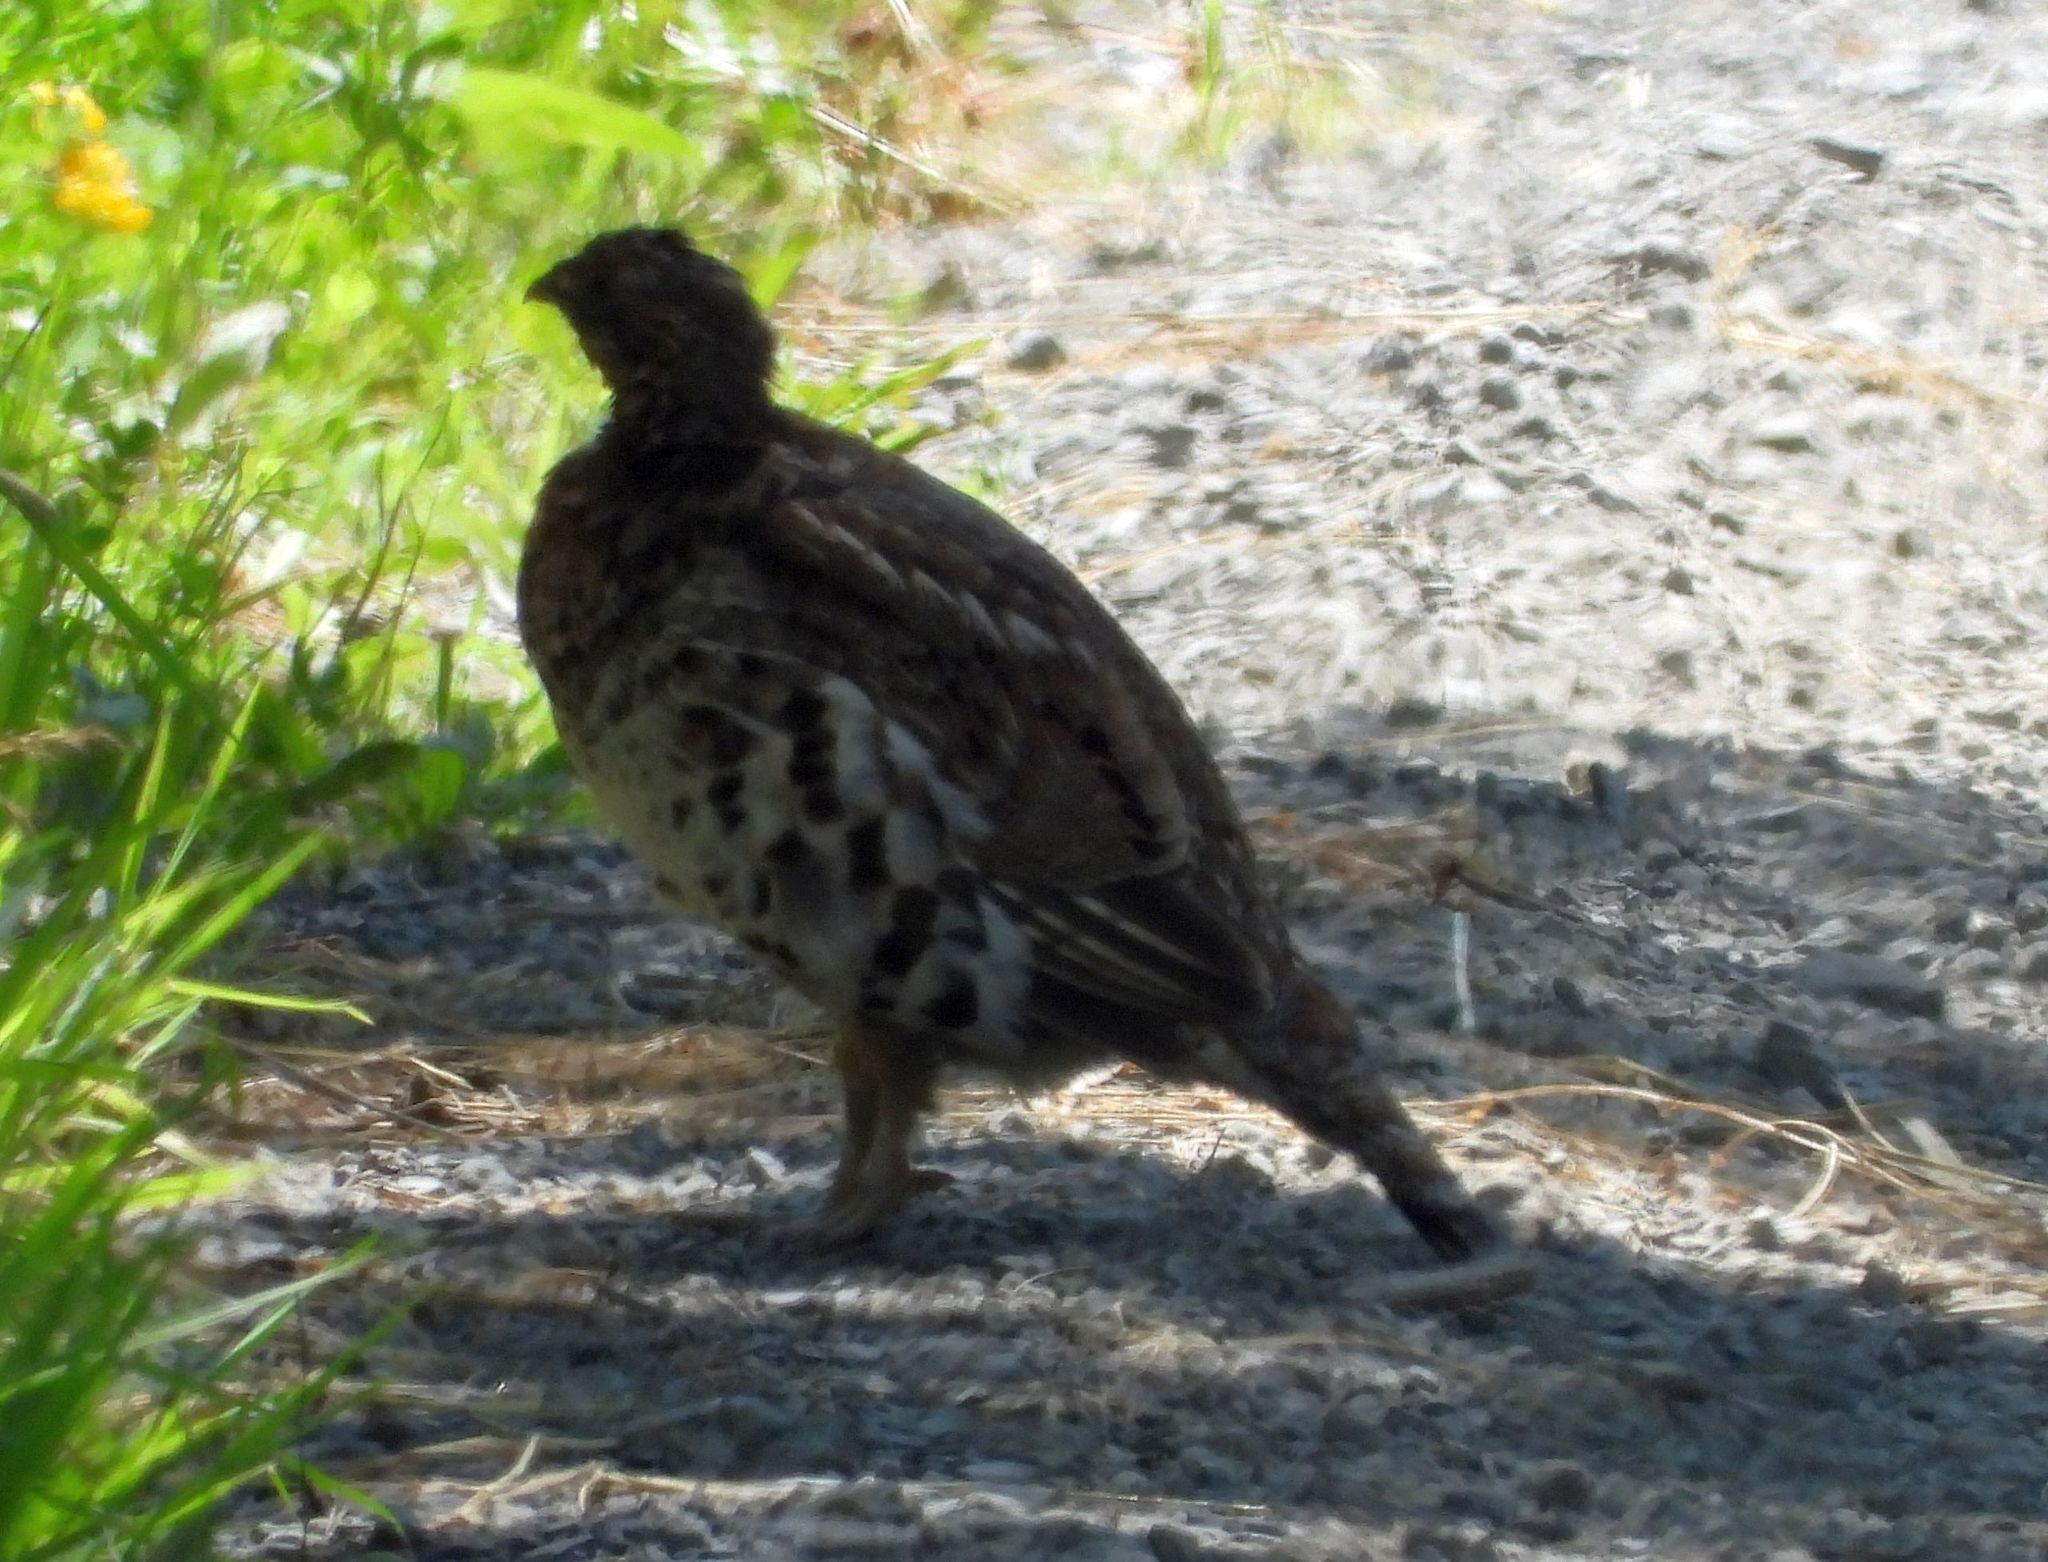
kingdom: Animalia
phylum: Chordata
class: Aves
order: Galliformes
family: Phasianidae
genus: Bonasa
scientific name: Bonasa umbellus
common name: Ruffed grouse
